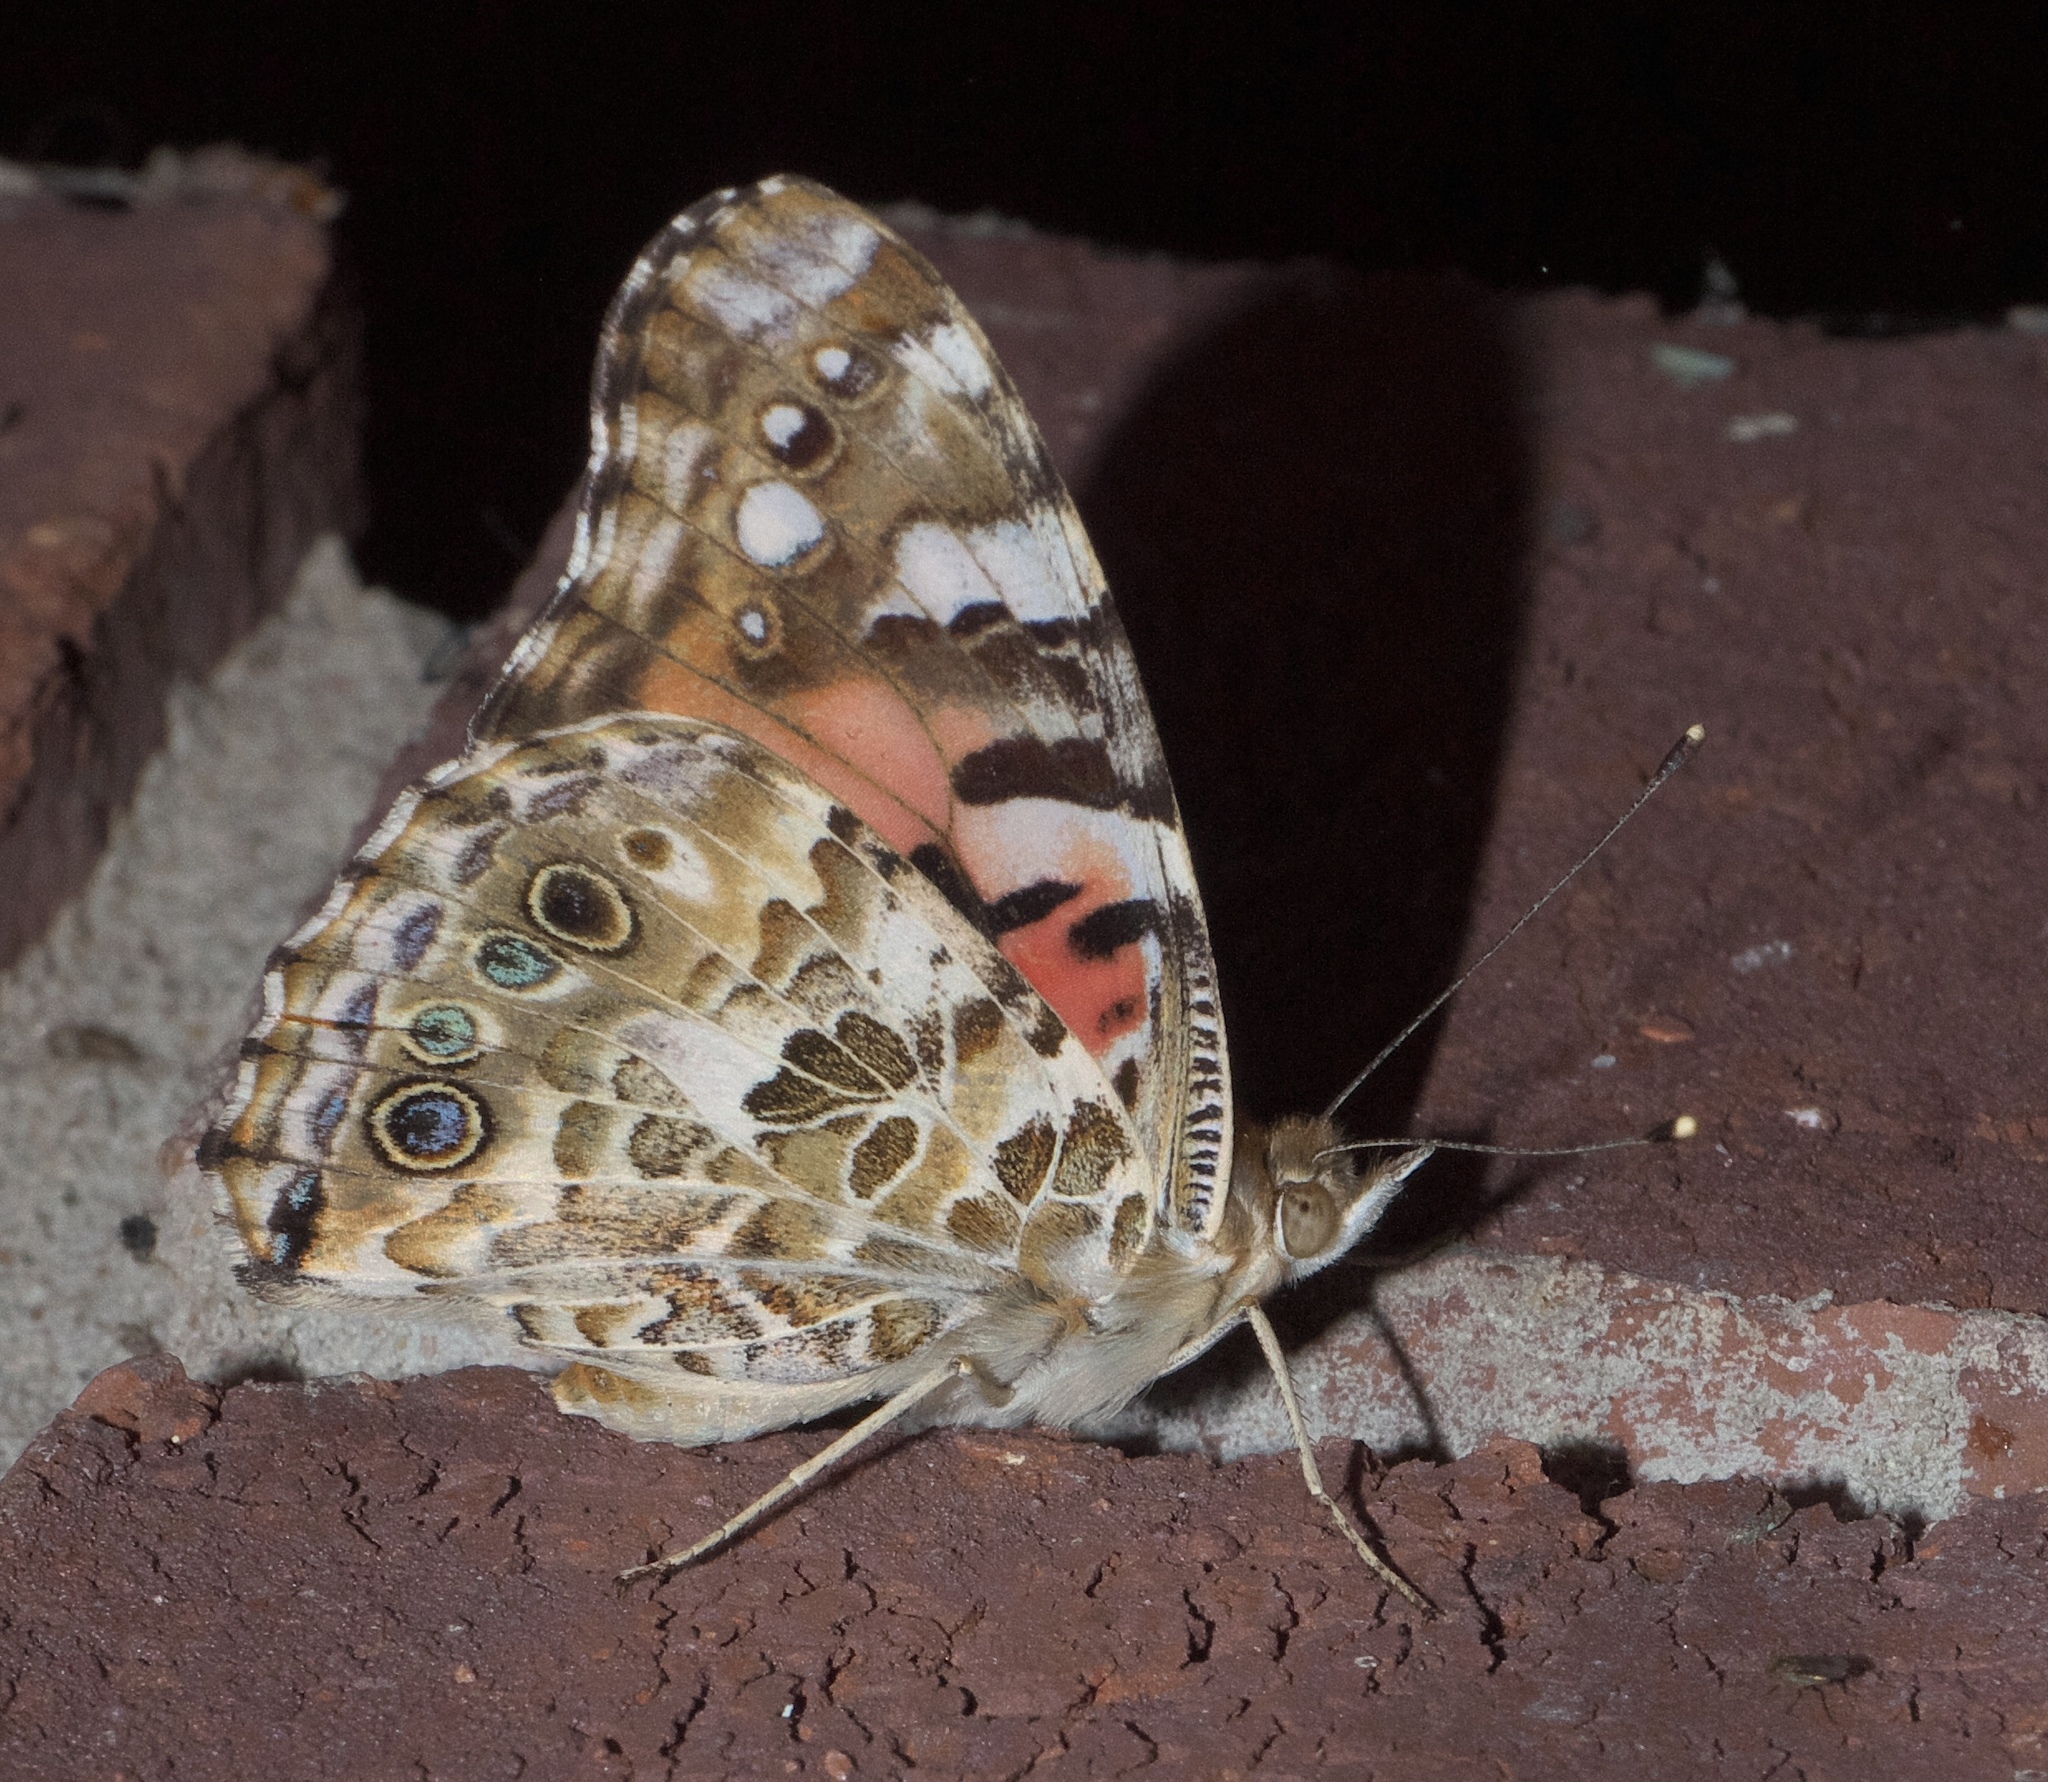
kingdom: Animalia
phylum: Arthropoda
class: Insecta
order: Lepidoptera
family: Nymphalidae
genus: Vanessa
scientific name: Vanessa cardui
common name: Painted lady
